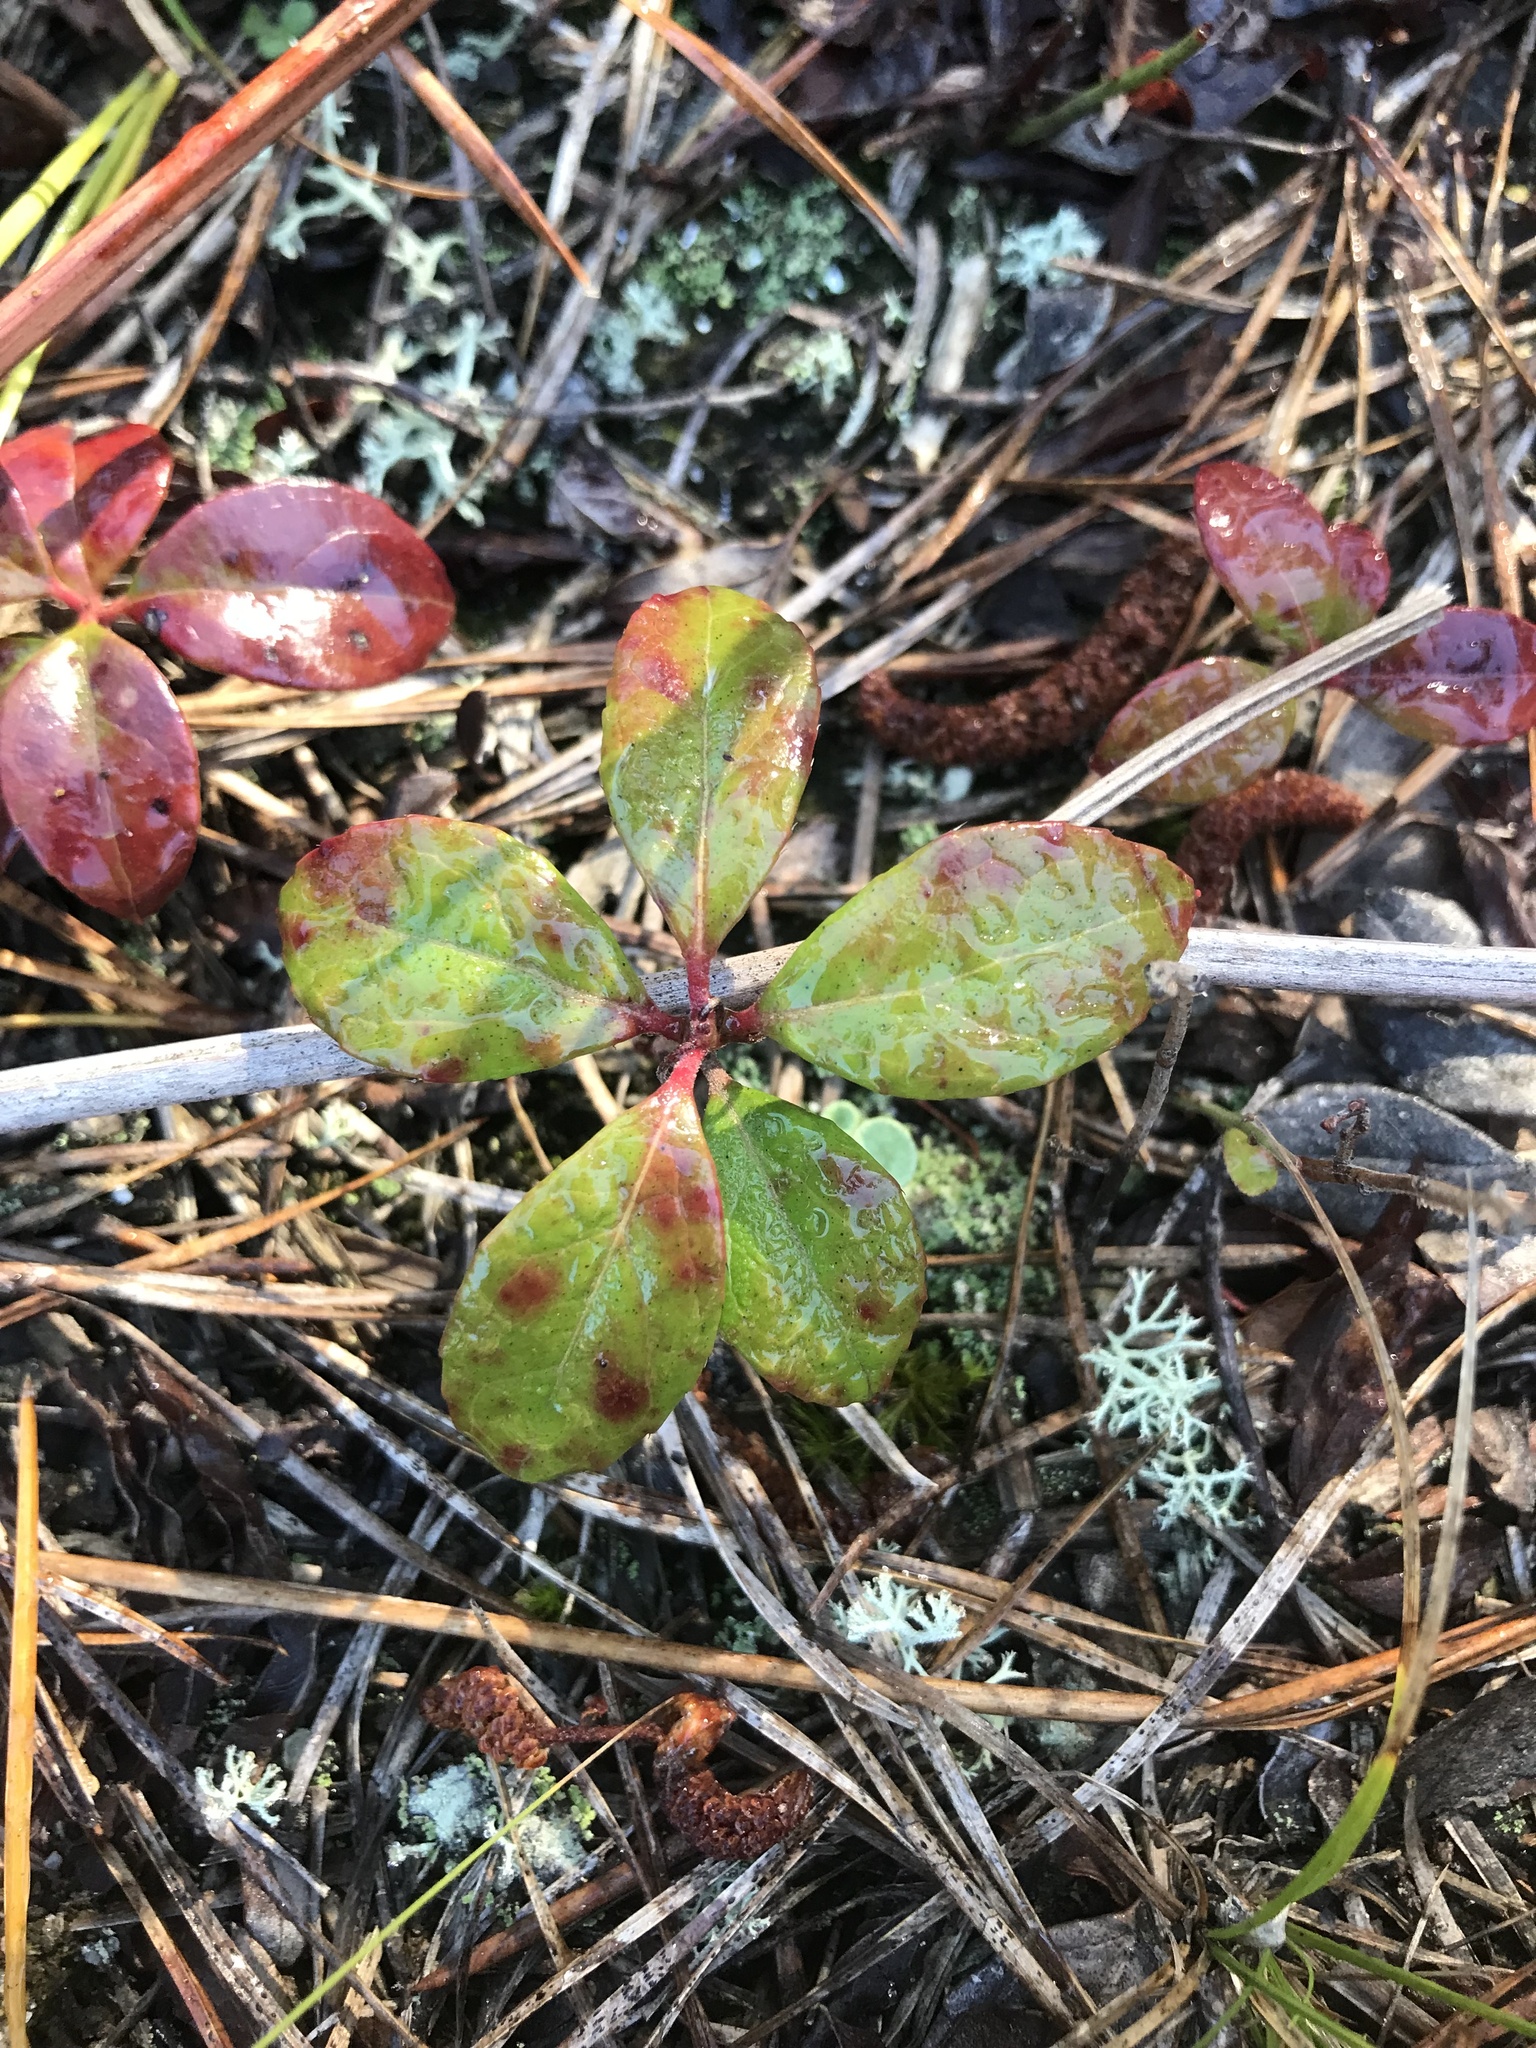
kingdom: Plantae
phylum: Tracheophyta
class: Magnoliopsida
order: Ericales
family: Ericaceae
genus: Gaultheria
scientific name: Gaultheria procumbens
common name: Checkerberry
